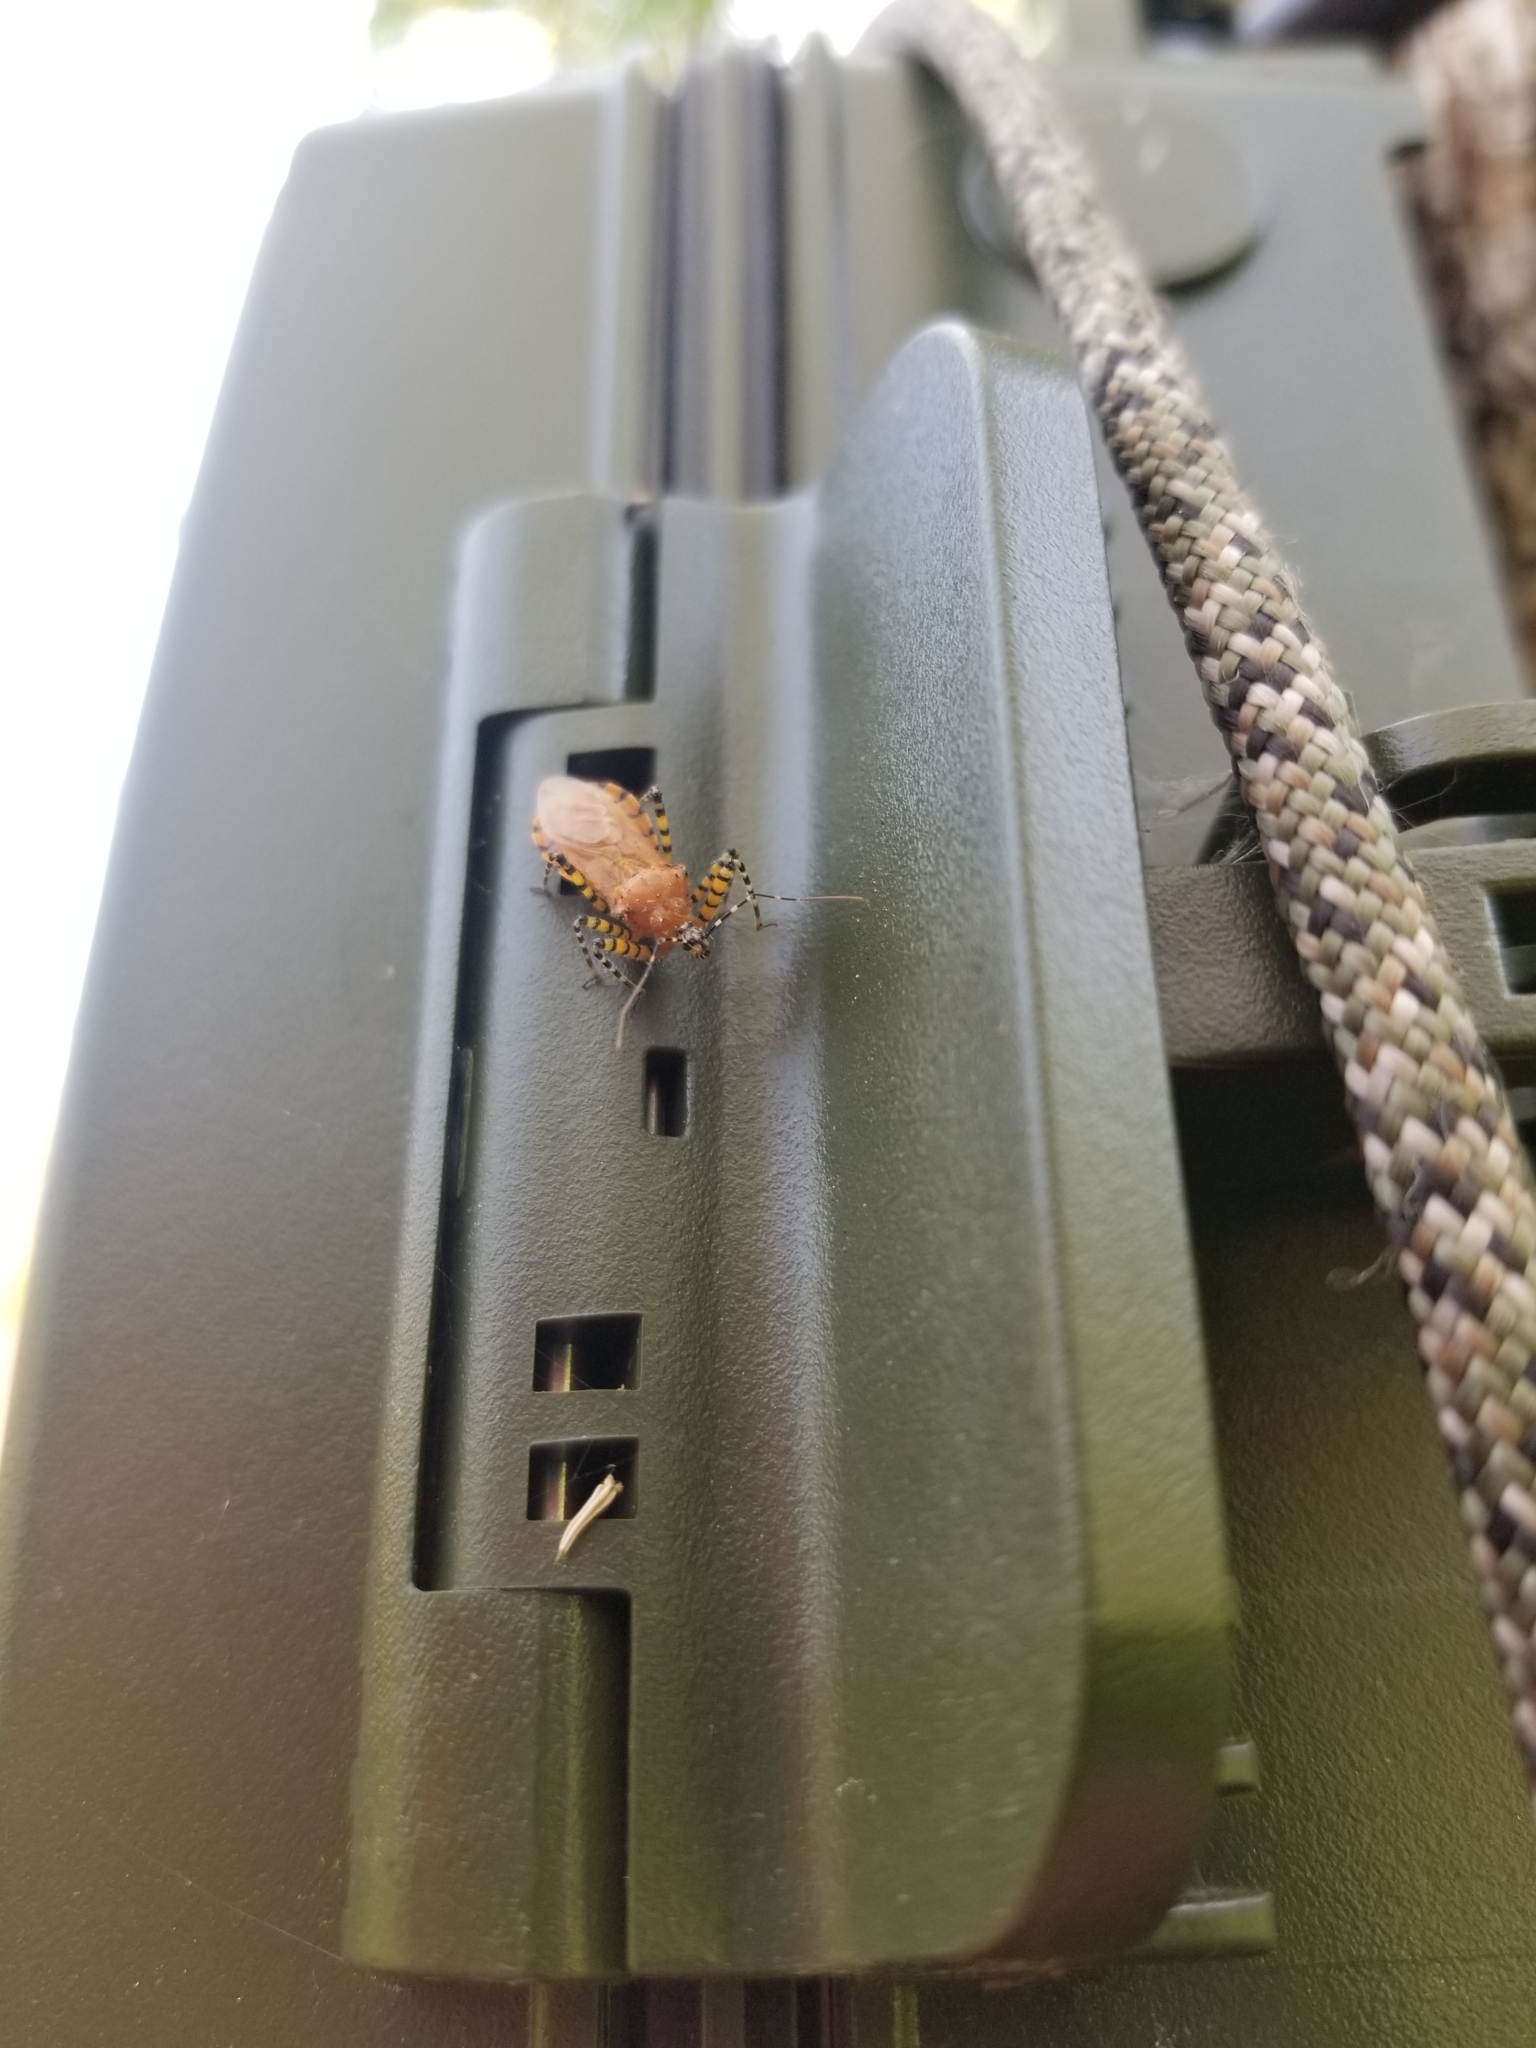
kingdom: Animalia
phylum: Arthropoda
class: Insecta
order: Hemiptera
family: Reduviidae
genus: Pselliopus
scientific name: Pselliopus barberi
